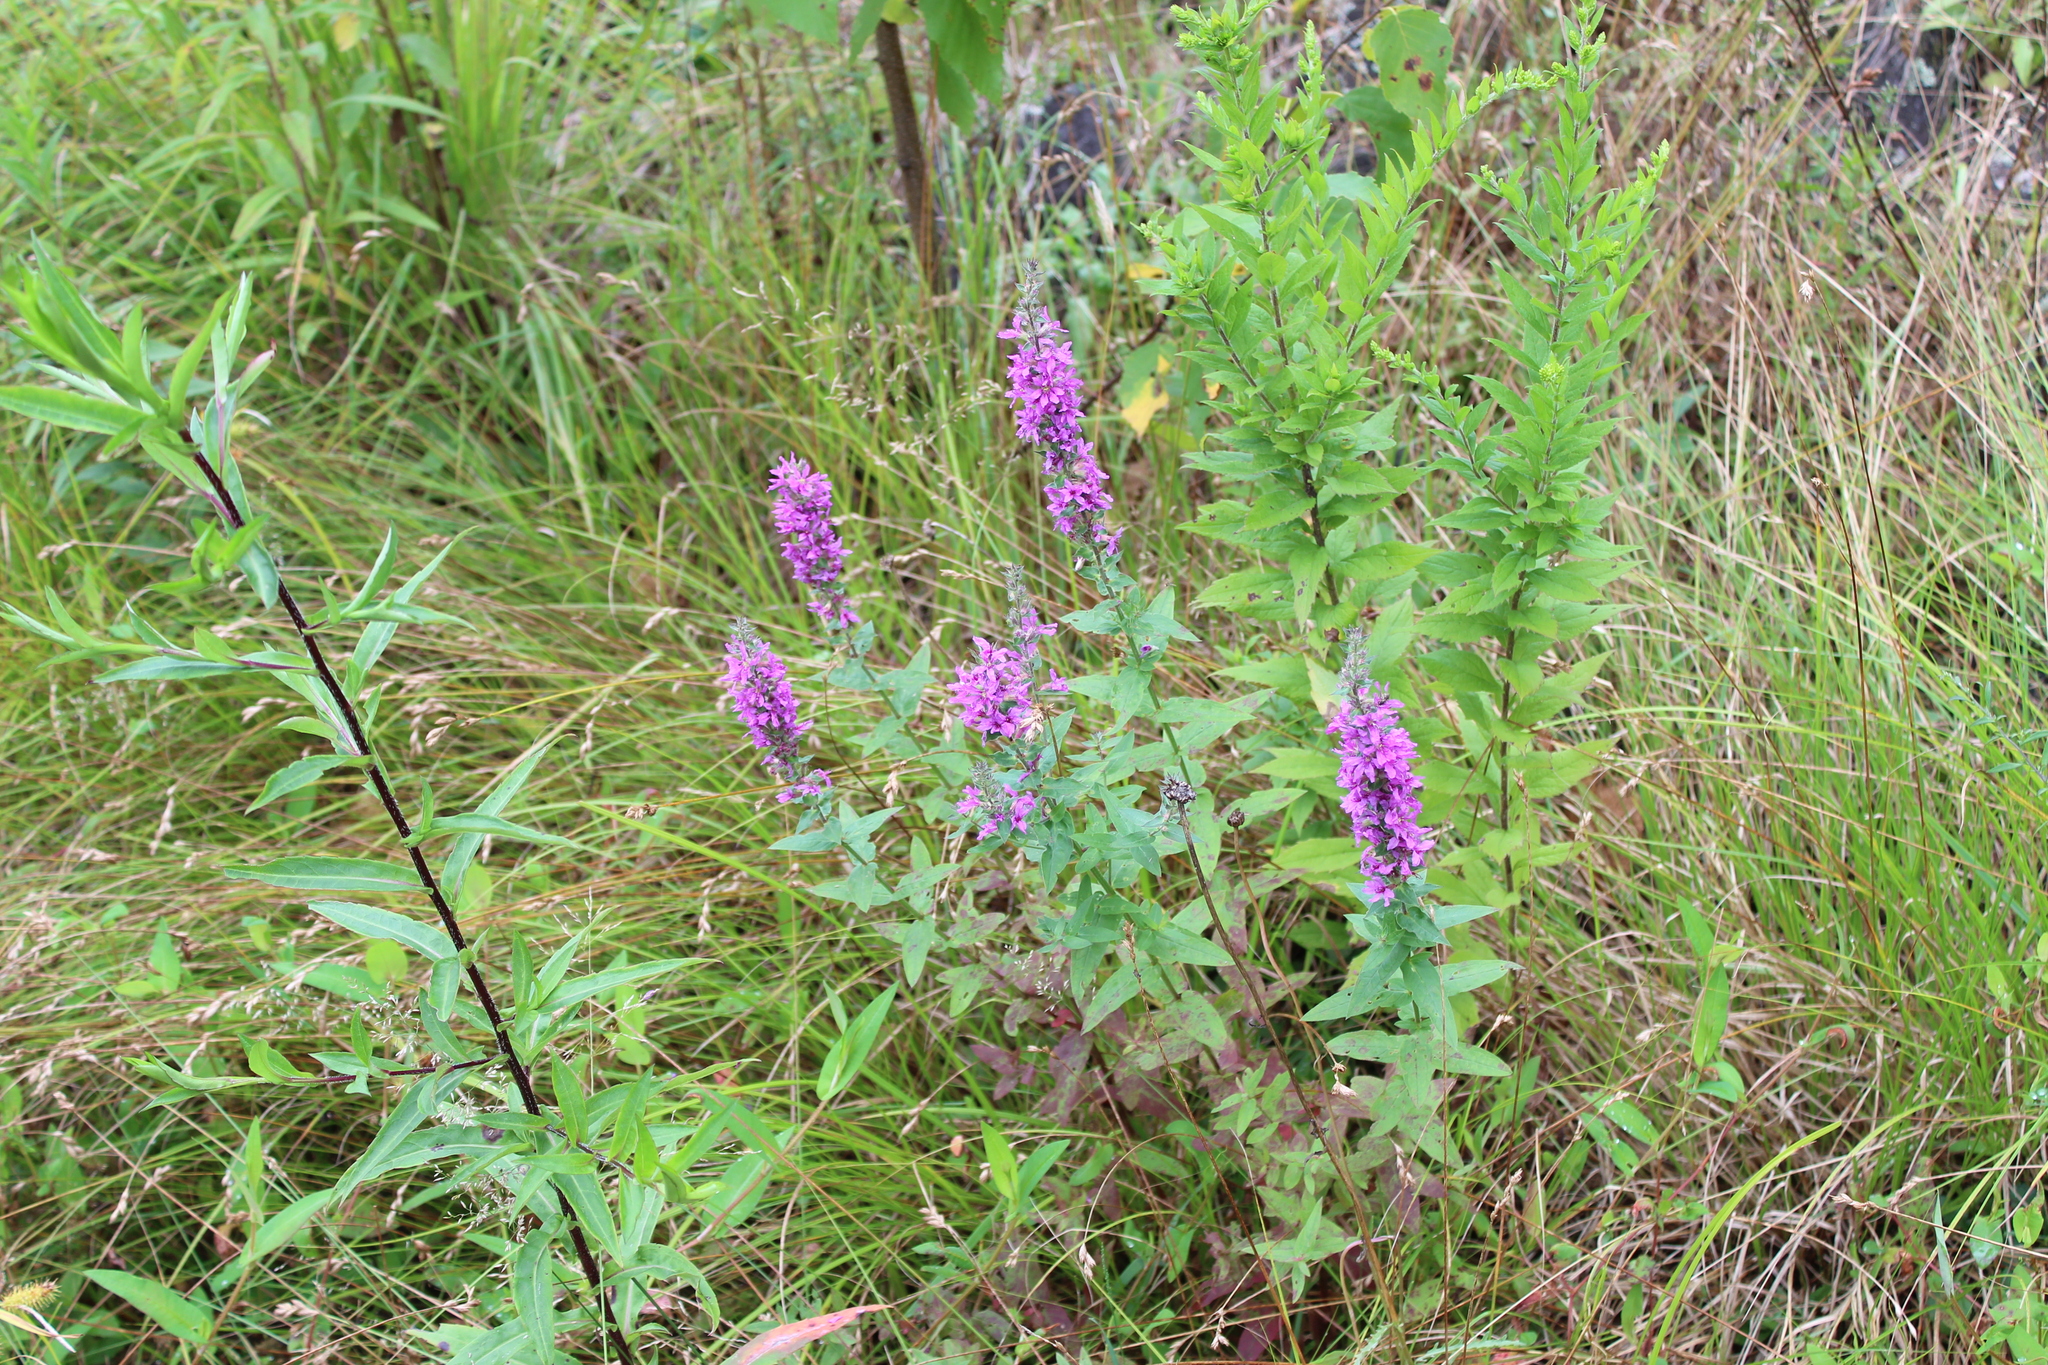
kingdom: Plantae
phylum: Tracheophyta
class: Magnoliopsida
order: Myrtales
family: Lythraceae
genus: Lythrum
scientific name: Lythrum salicaria
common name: Purple loosestrife
